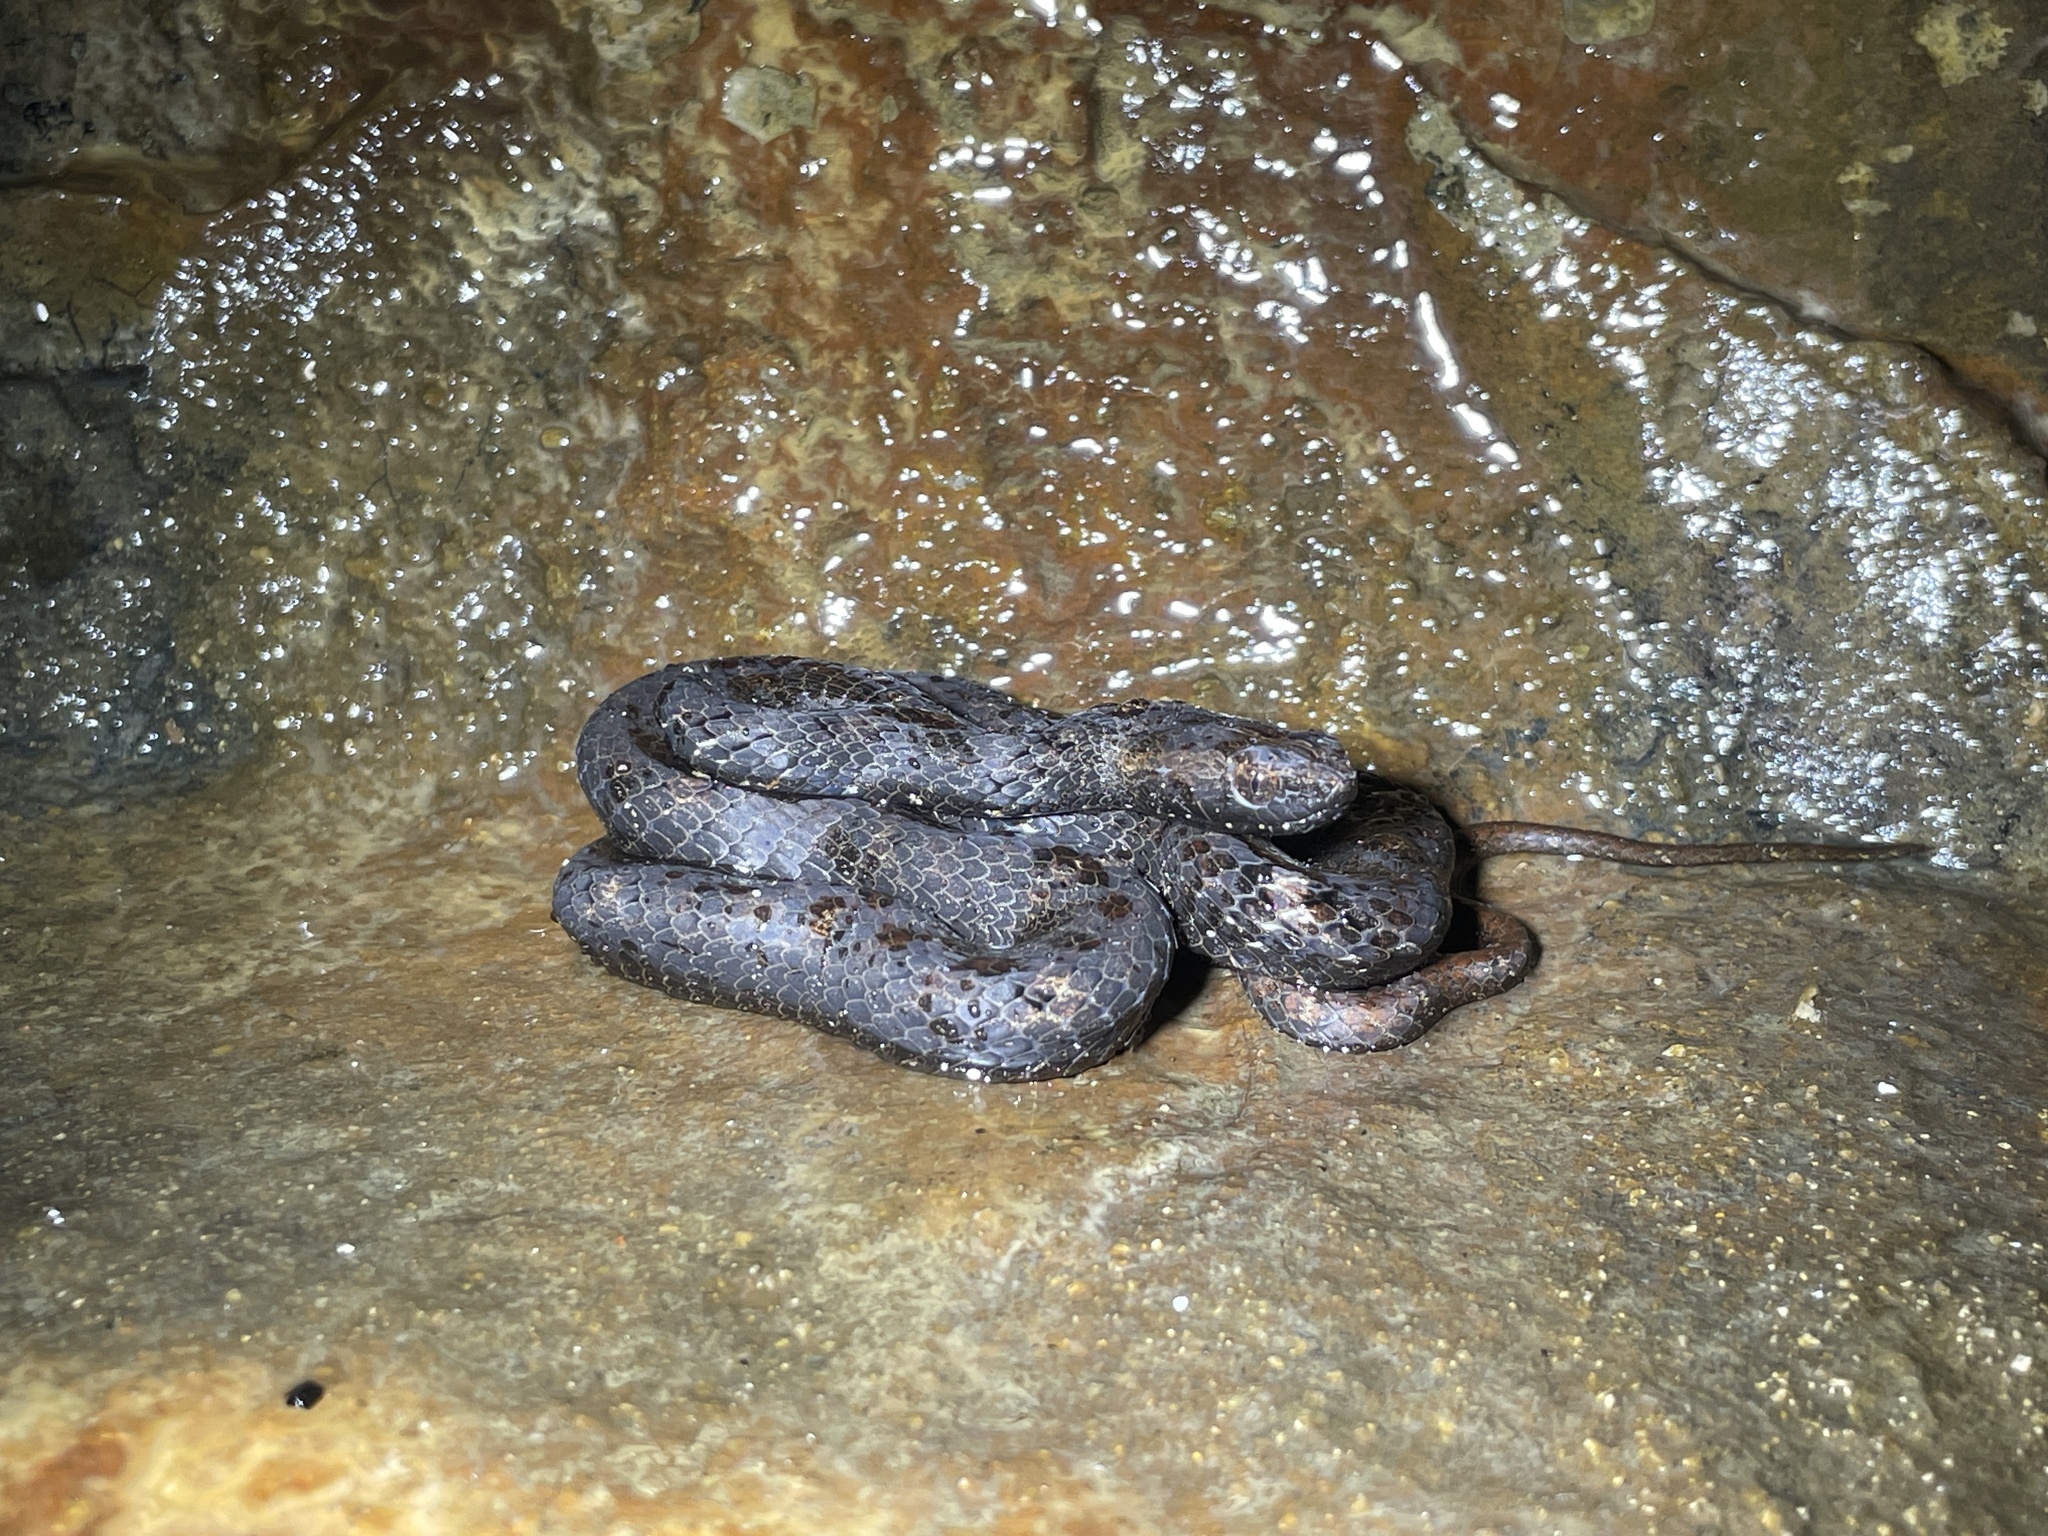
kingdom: Animalia
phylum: Chordata
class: Squamata
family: Pseudaspididae
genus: Psammodynastes
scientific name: Psammodynastes pulverulentus
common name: Common mock viper
